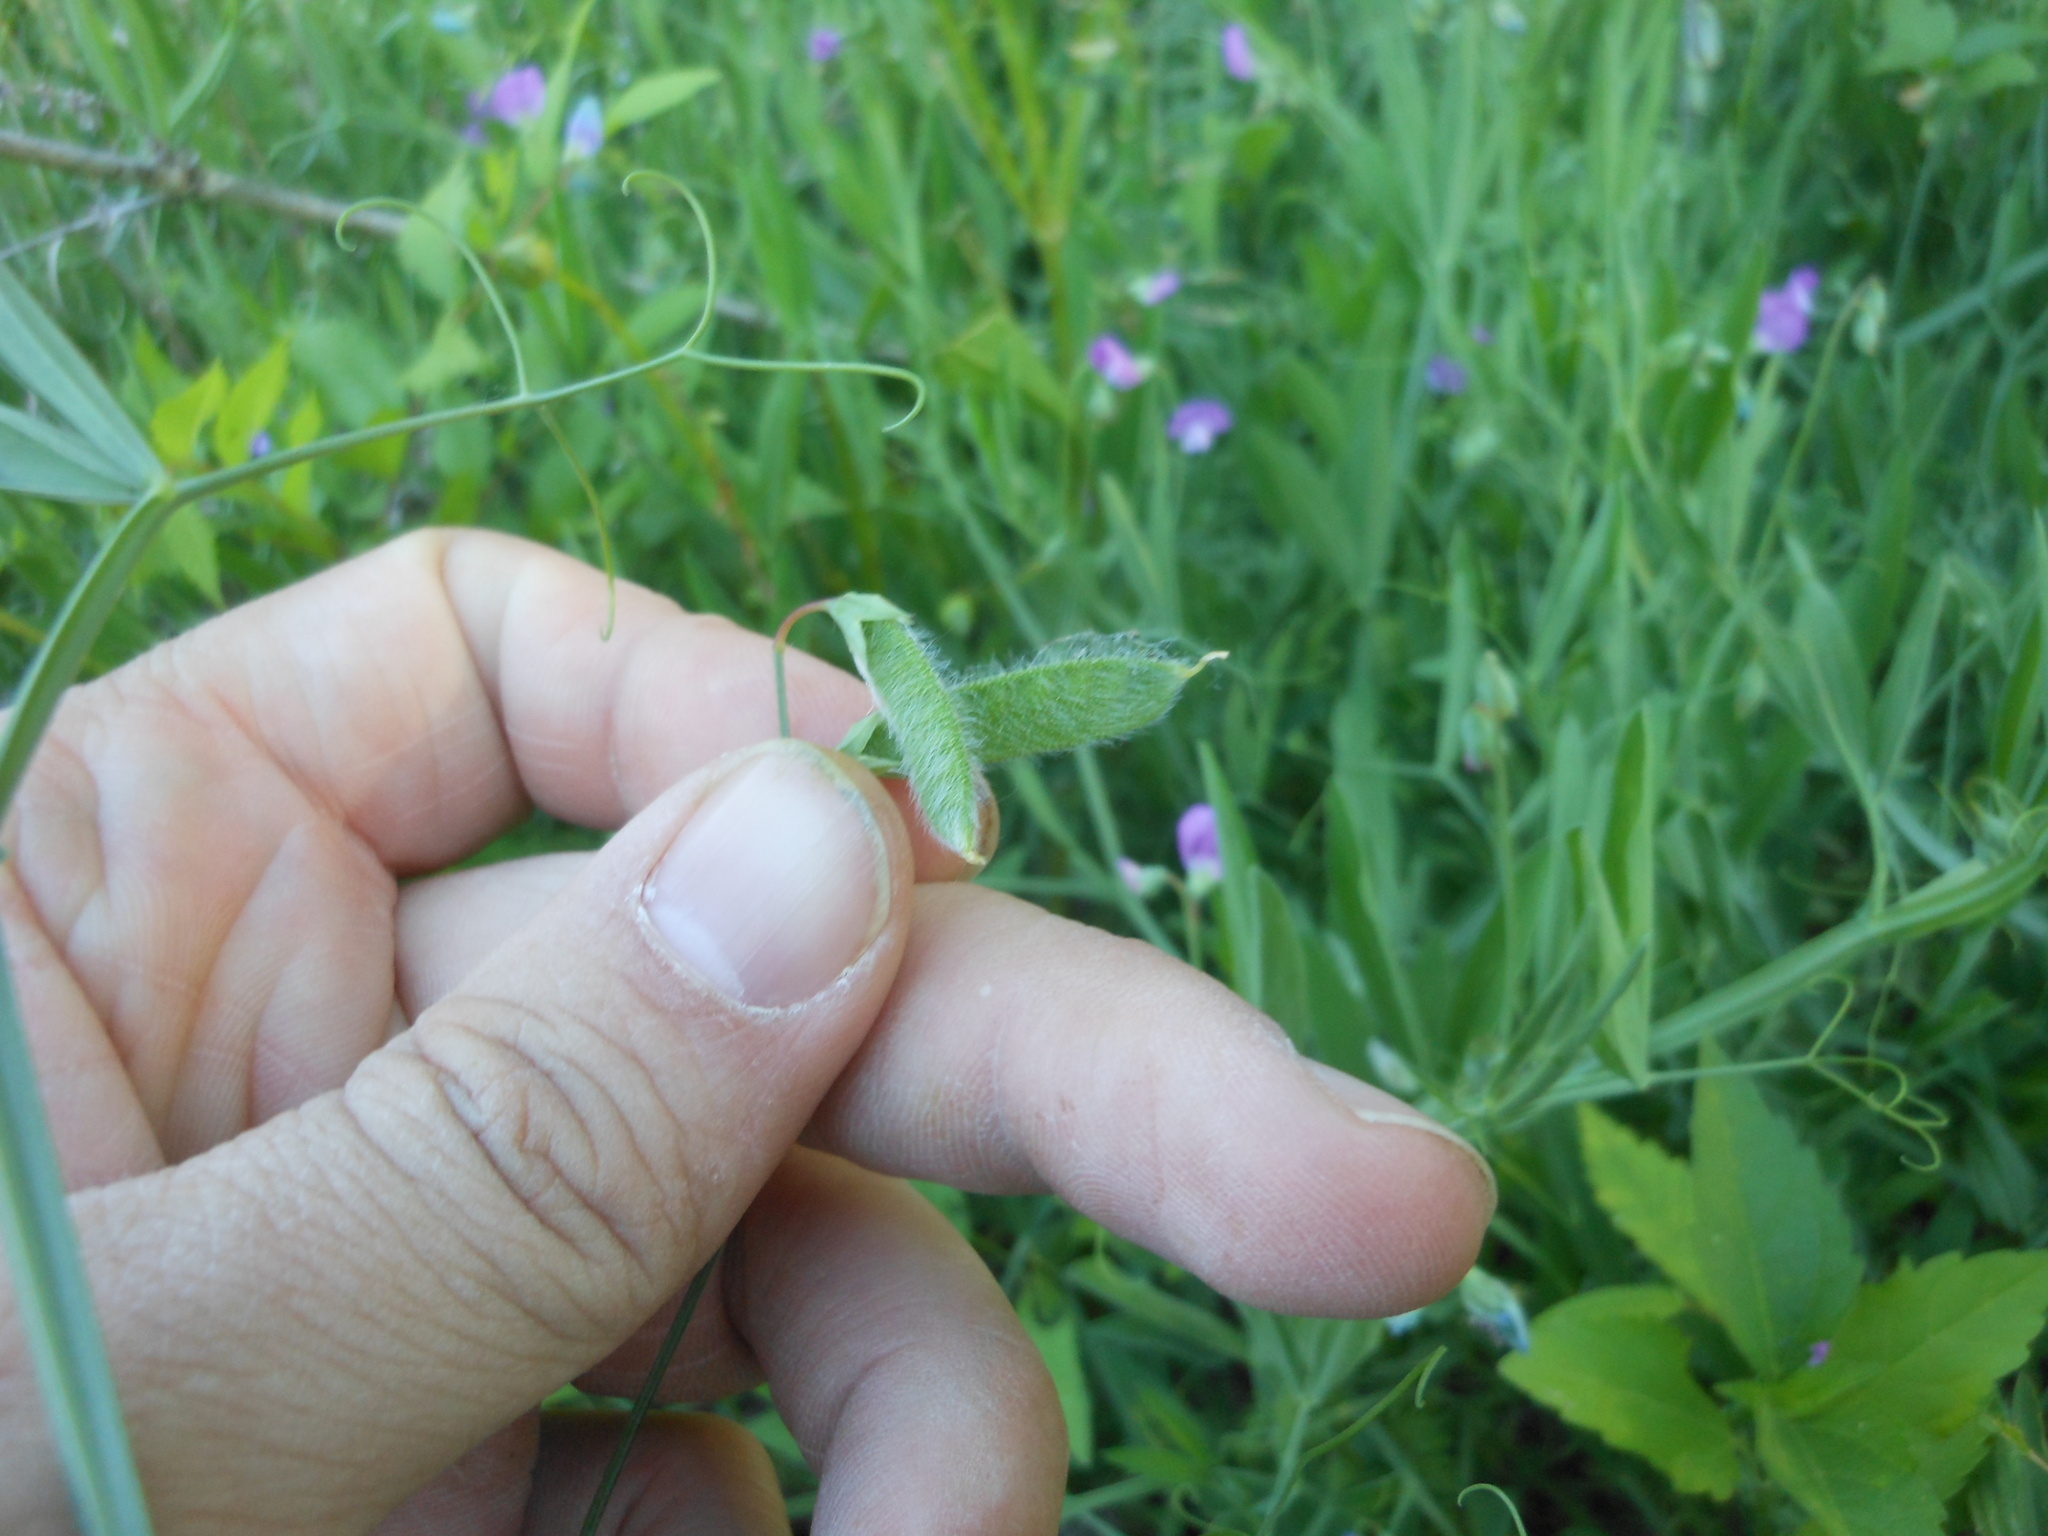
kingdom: Plantae
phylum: Tracheophyta
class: Magnoliopsida
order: Fabales
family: Fabaceae
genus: Lathyrus
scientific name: Lathyrus hirsutus
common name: Hairy vetchling
